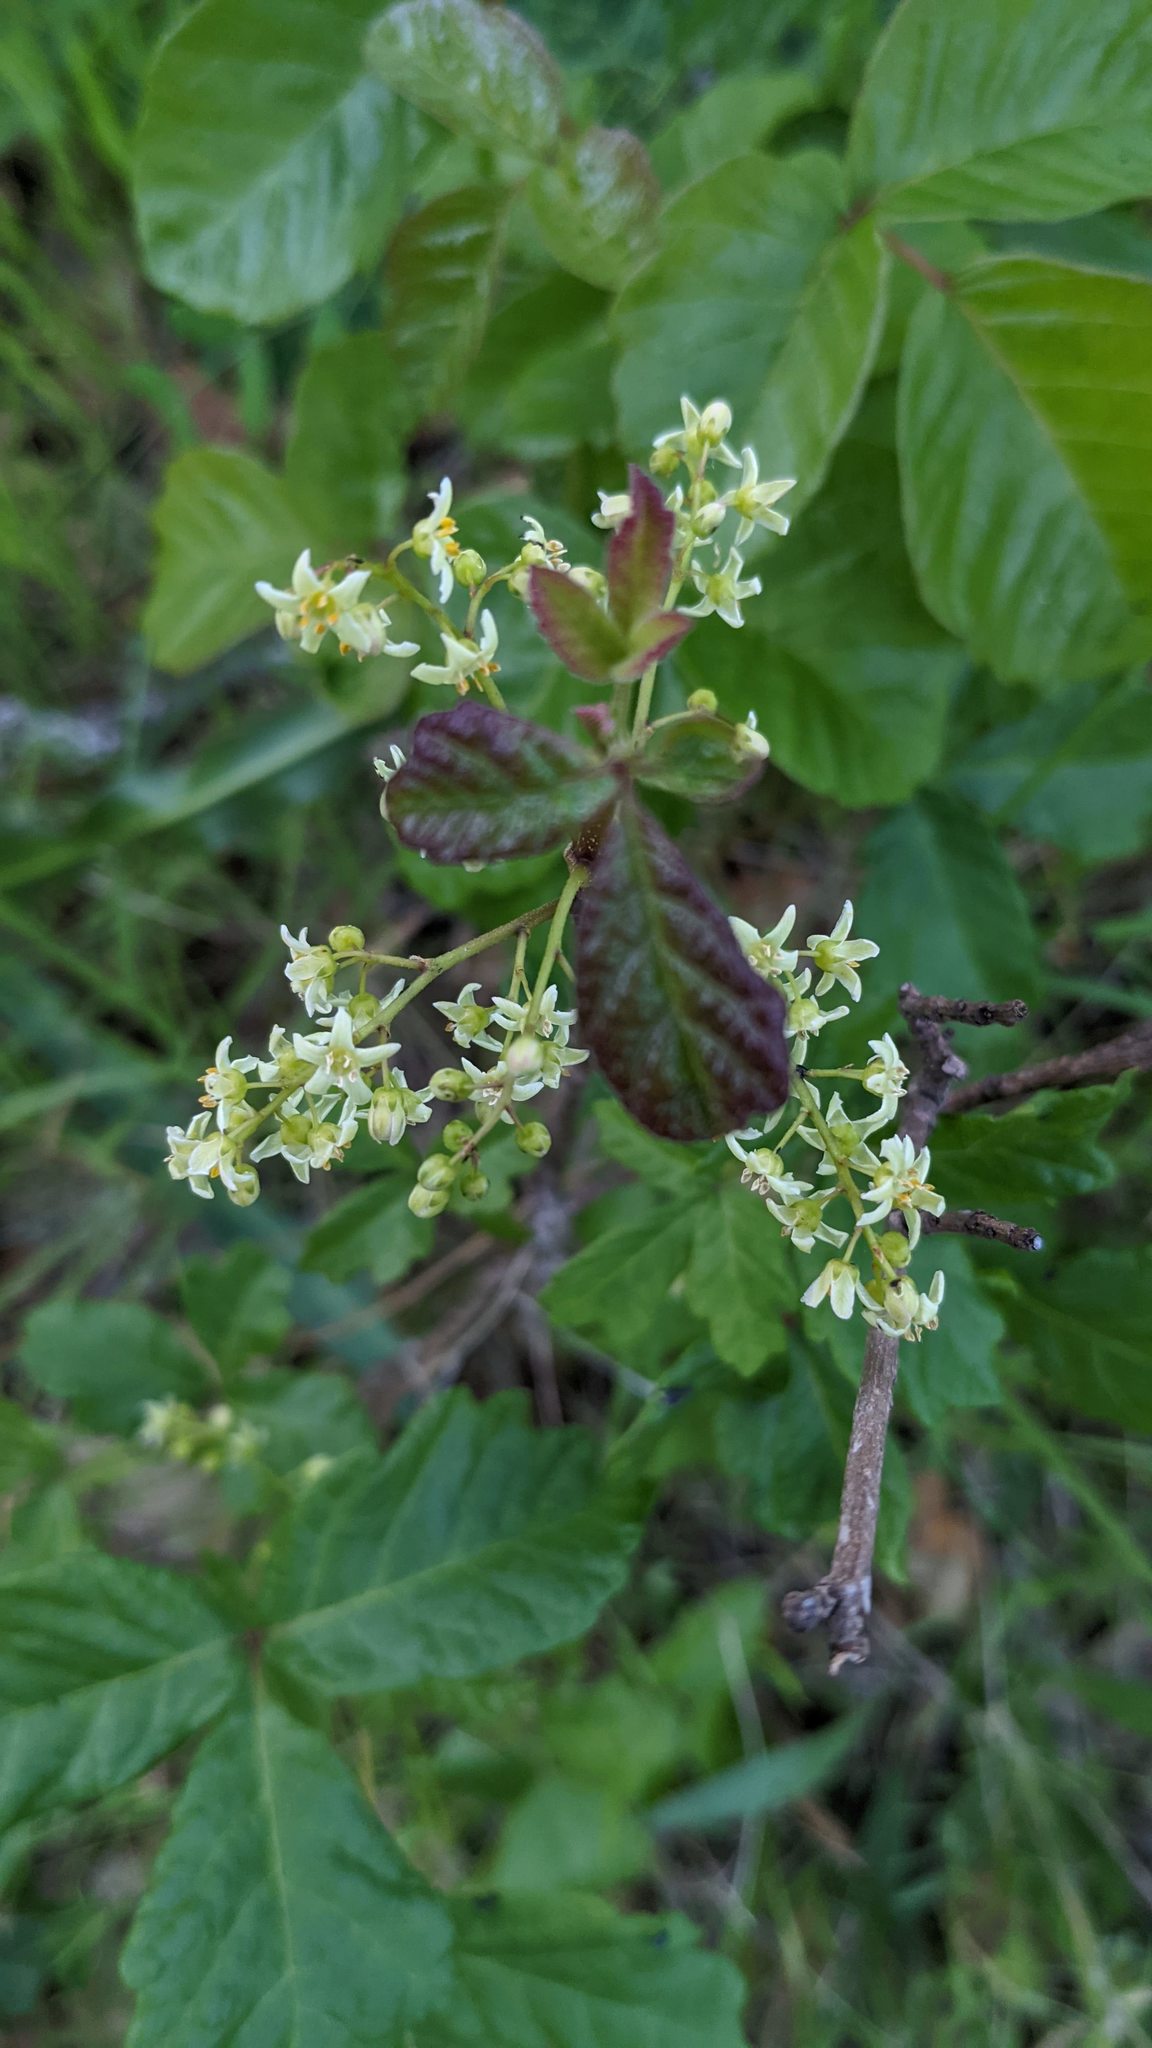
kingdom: Plantae
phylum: Tracheophyta
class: Magnoliopsida
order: Sapindales
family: Anacardiaceae
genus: Toxicodendron
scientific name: Toxicodendron diversilobum
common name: Pacific poison-oak
